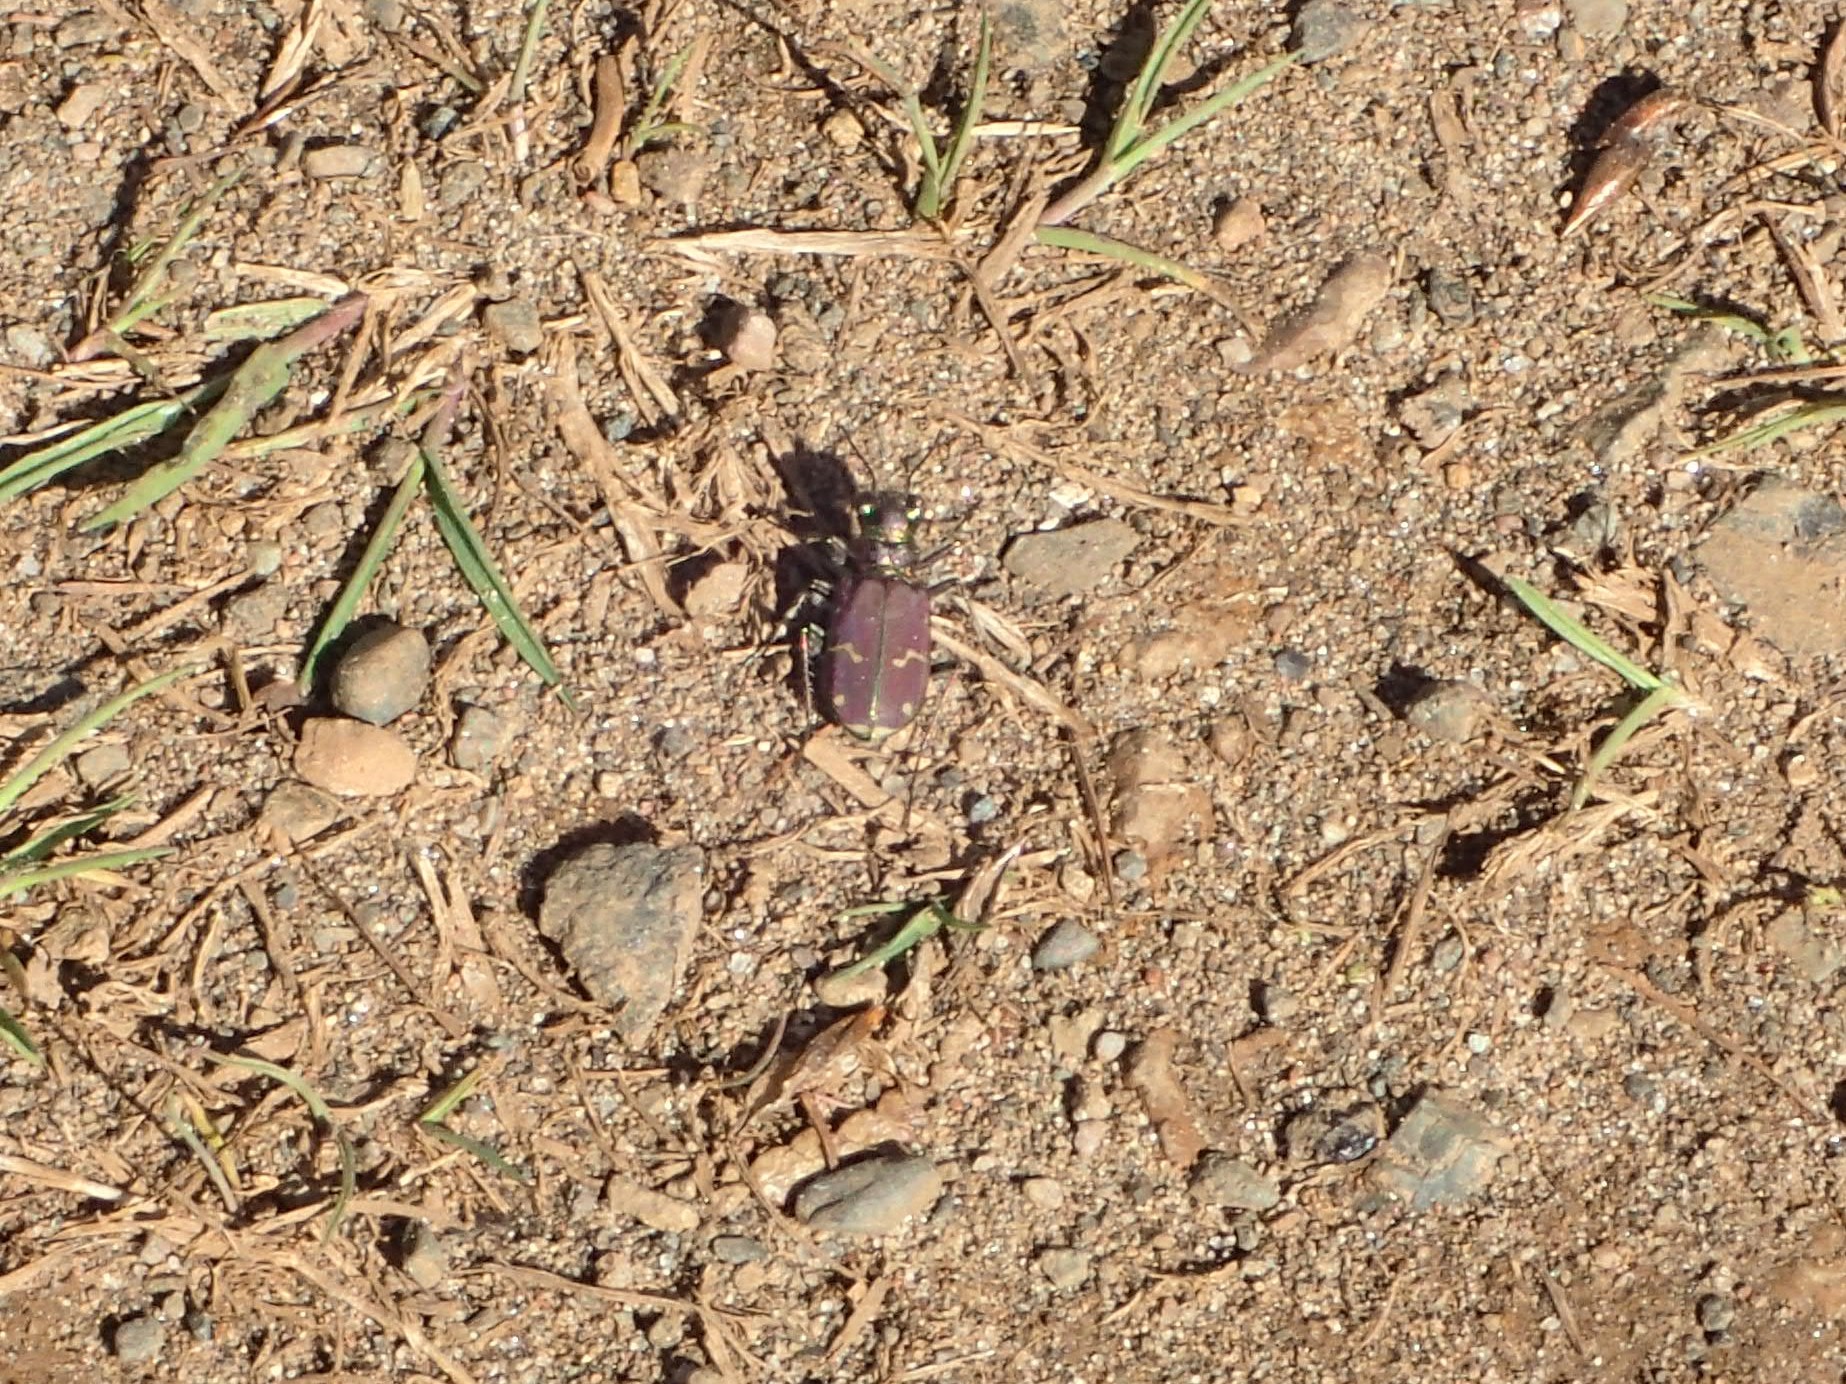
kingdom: Animalia
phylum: Arthropoda
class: Insecta
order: Coleoptera
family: Carabidae
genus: Cicindela
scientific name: Cicindela limbalis
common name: Common claybank tiger beetle
